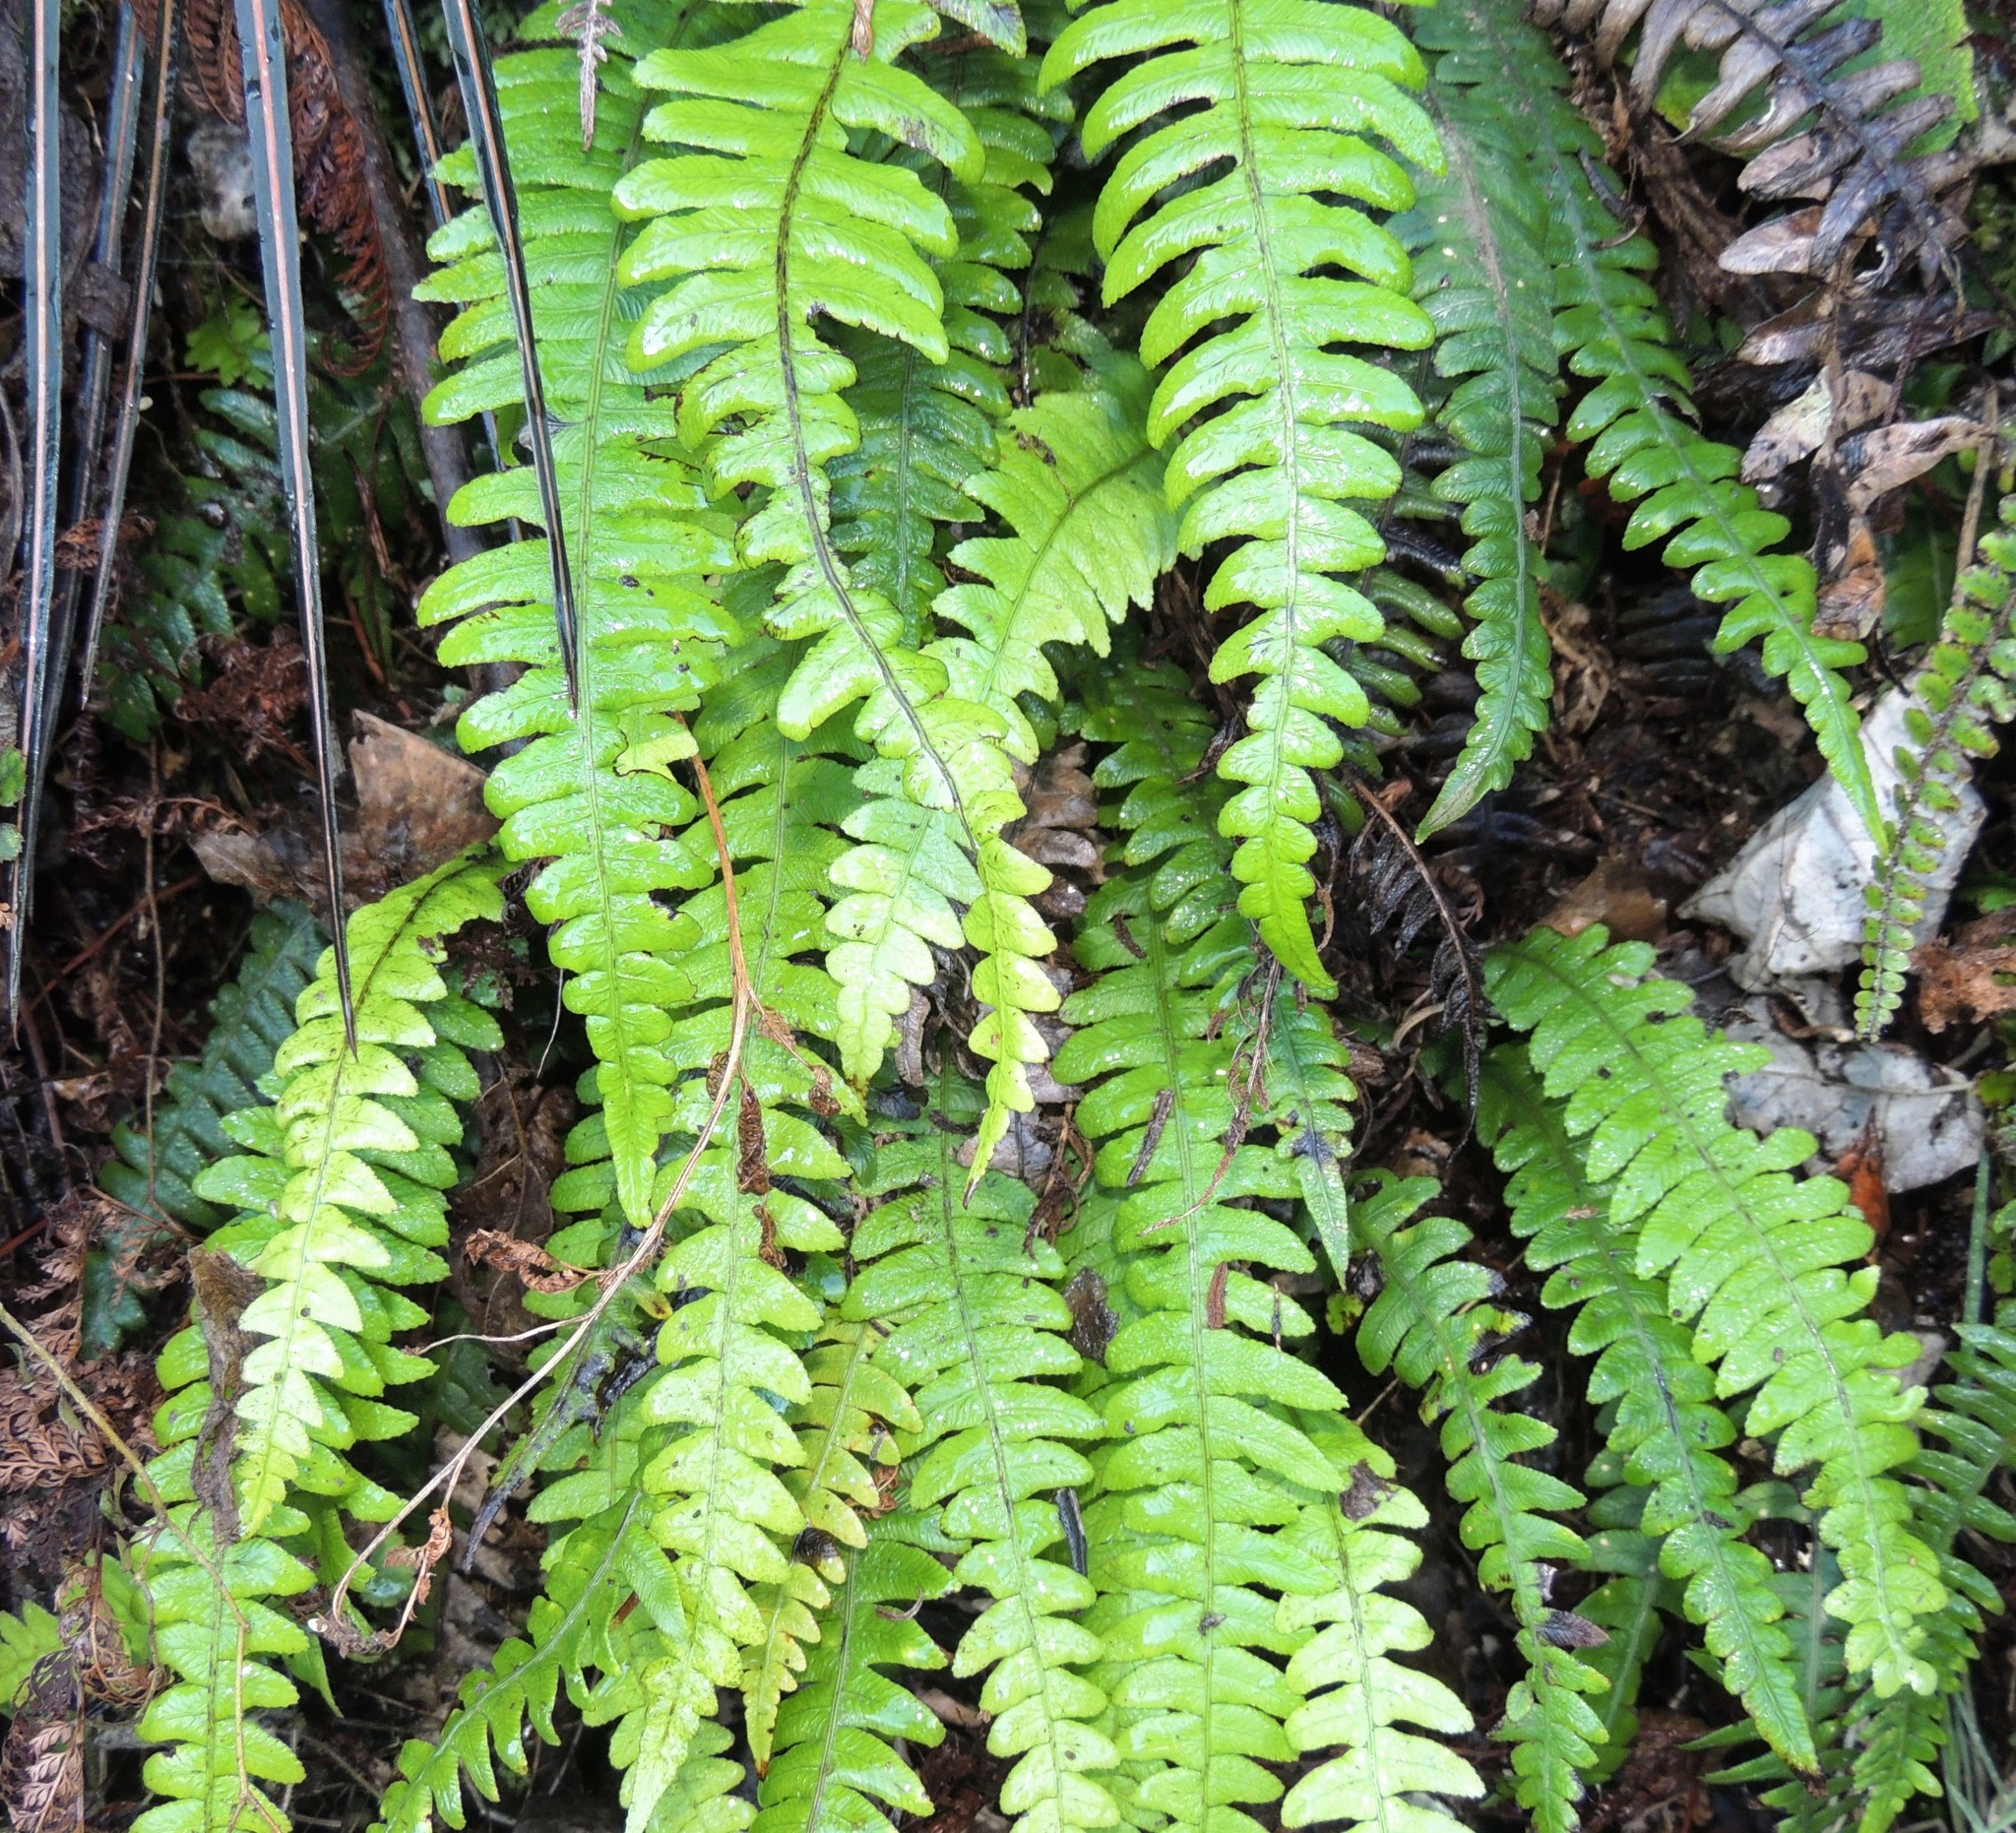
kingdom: Plantae
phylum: Tracheophyta
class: Polypodiopsida
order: Polypodiales
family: Blechnaceae
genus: Austroblechnum
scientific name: Austroblechnum lanceolatum
